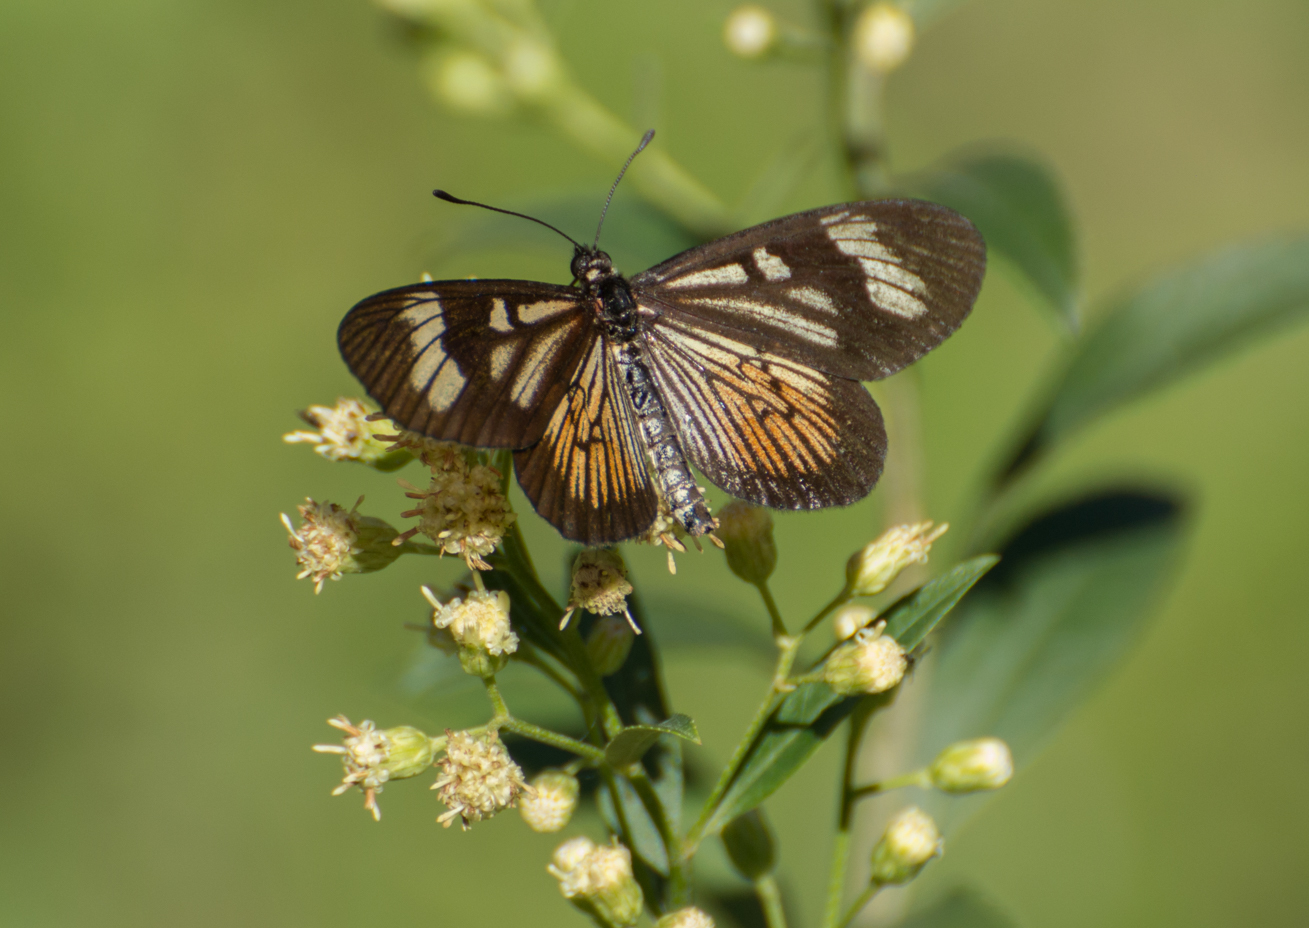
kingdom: Animalia
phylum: Arthropoda
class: Insecta
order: Lepidoptera
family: Nymphalidae
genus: Actinote
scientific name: Actinote pellenea
